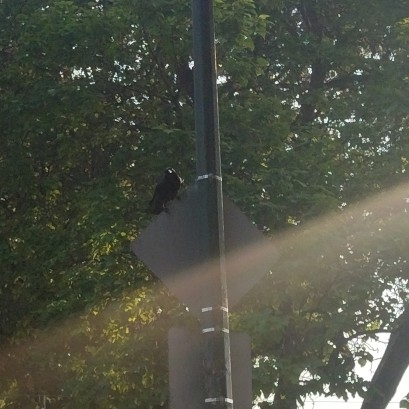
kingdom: Animalia
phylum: Chordata
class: Aves
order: Passeriformes
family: Corvidae
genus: Corvus
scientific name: Corvus brachyrhynchos
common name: American crow
